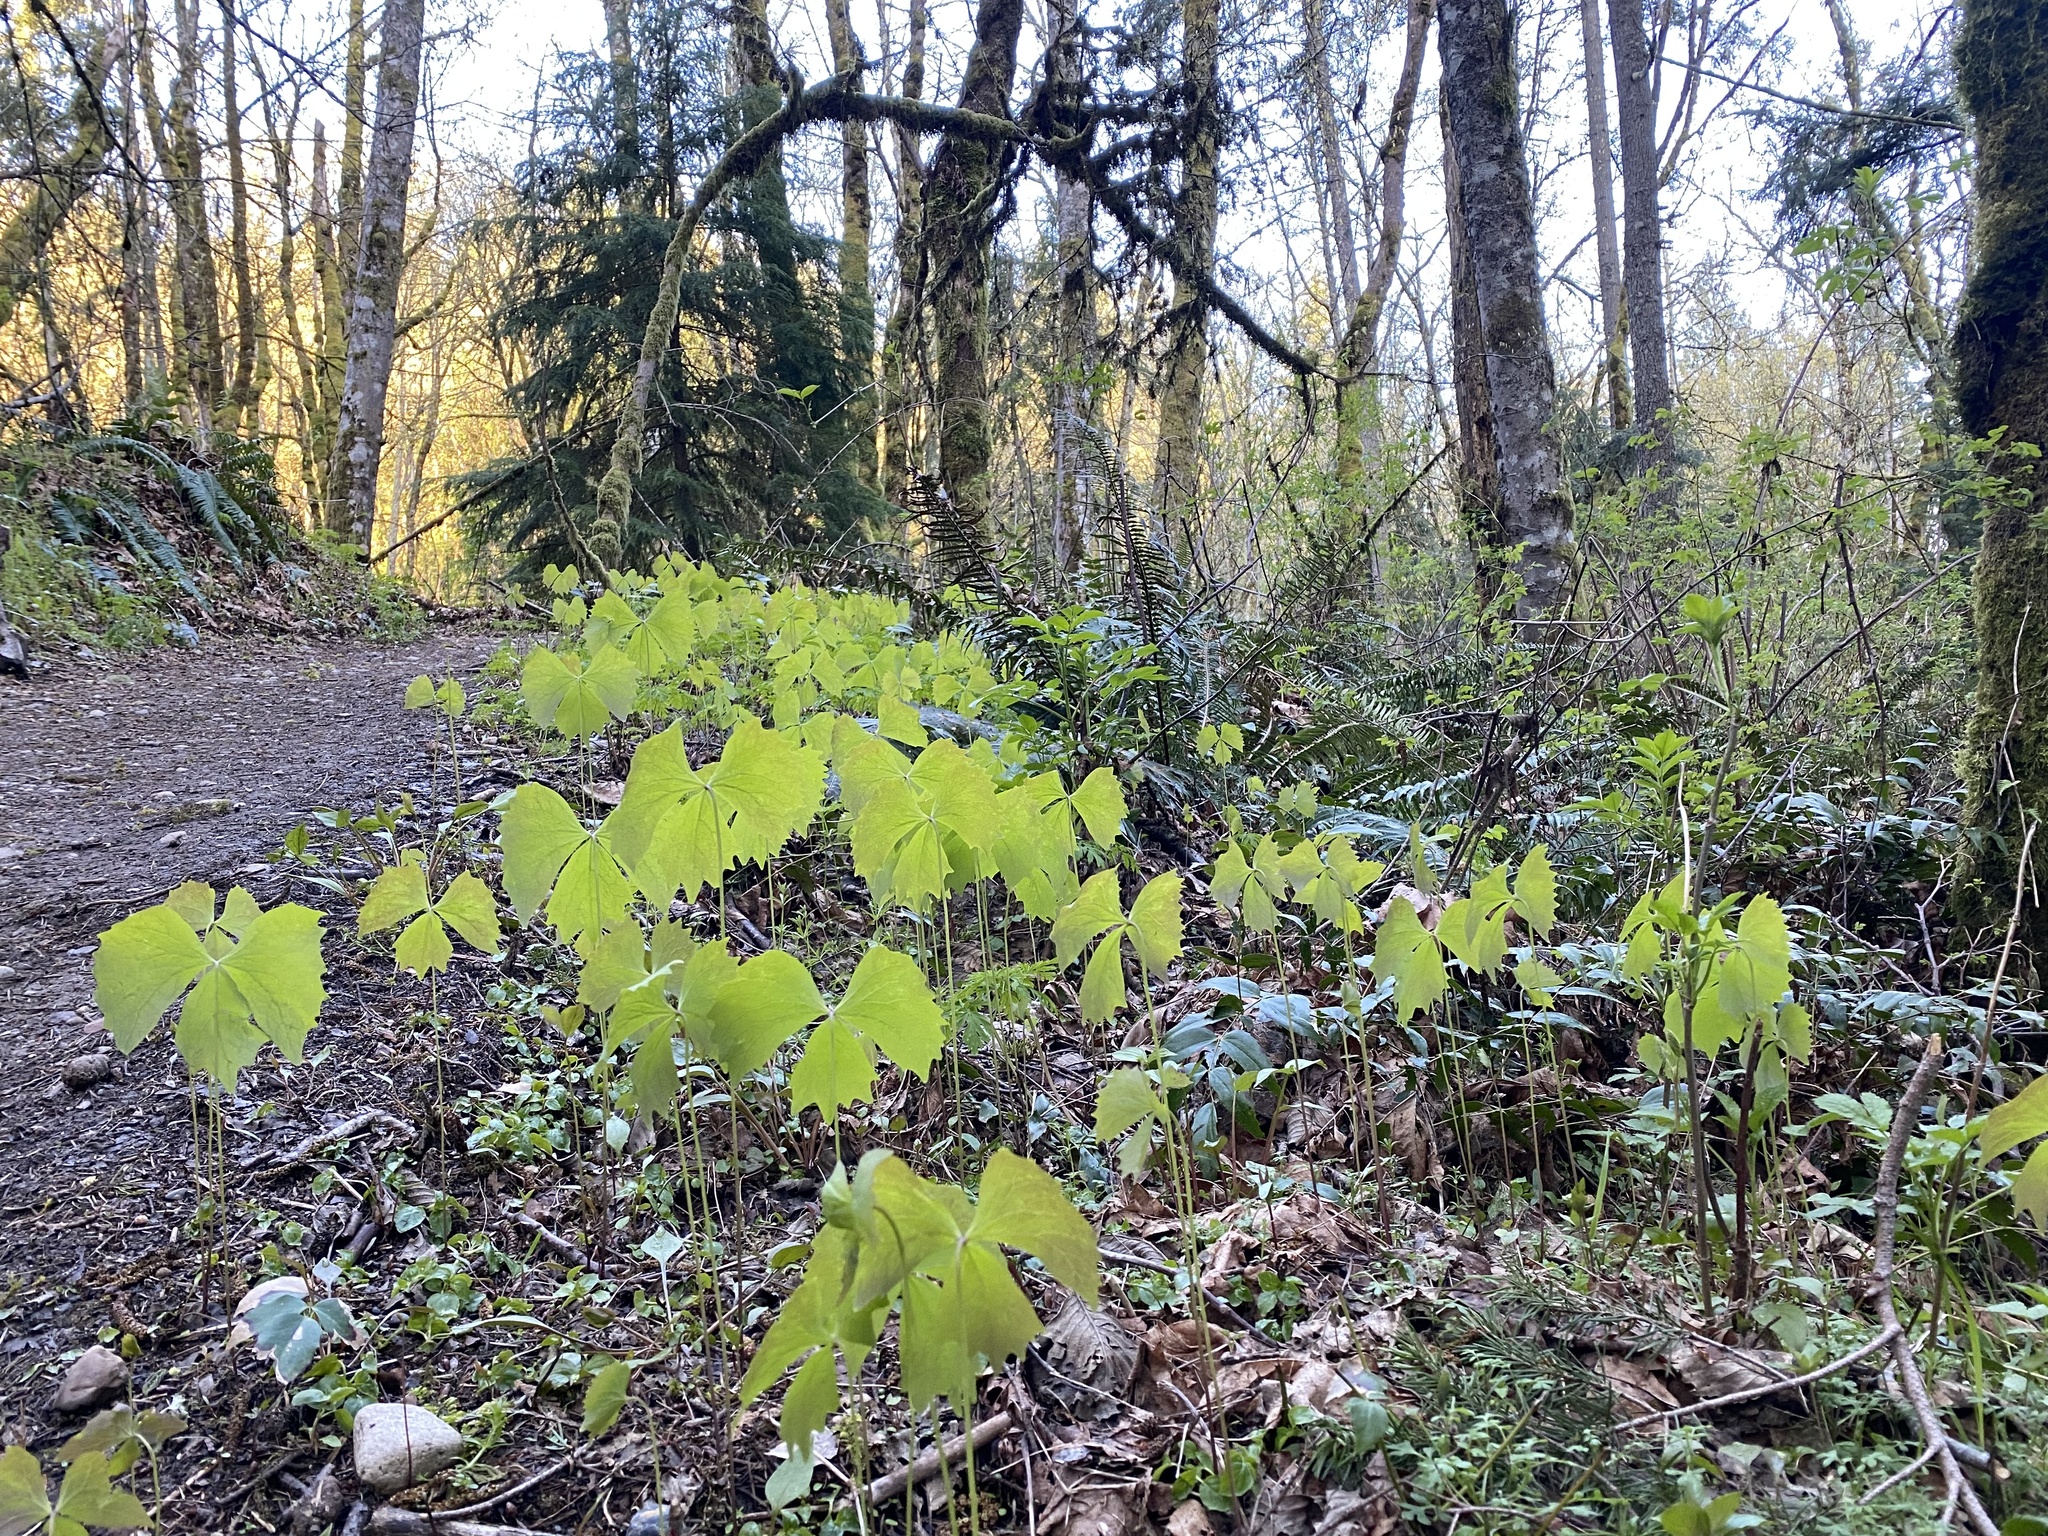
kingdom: Plantae
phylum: Tracheophyta
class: Magnoliopsida
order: Ranunculales
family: Berberidaceae
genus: Achlys
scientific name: Achlys triphylla
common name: Vanilla-leaf
